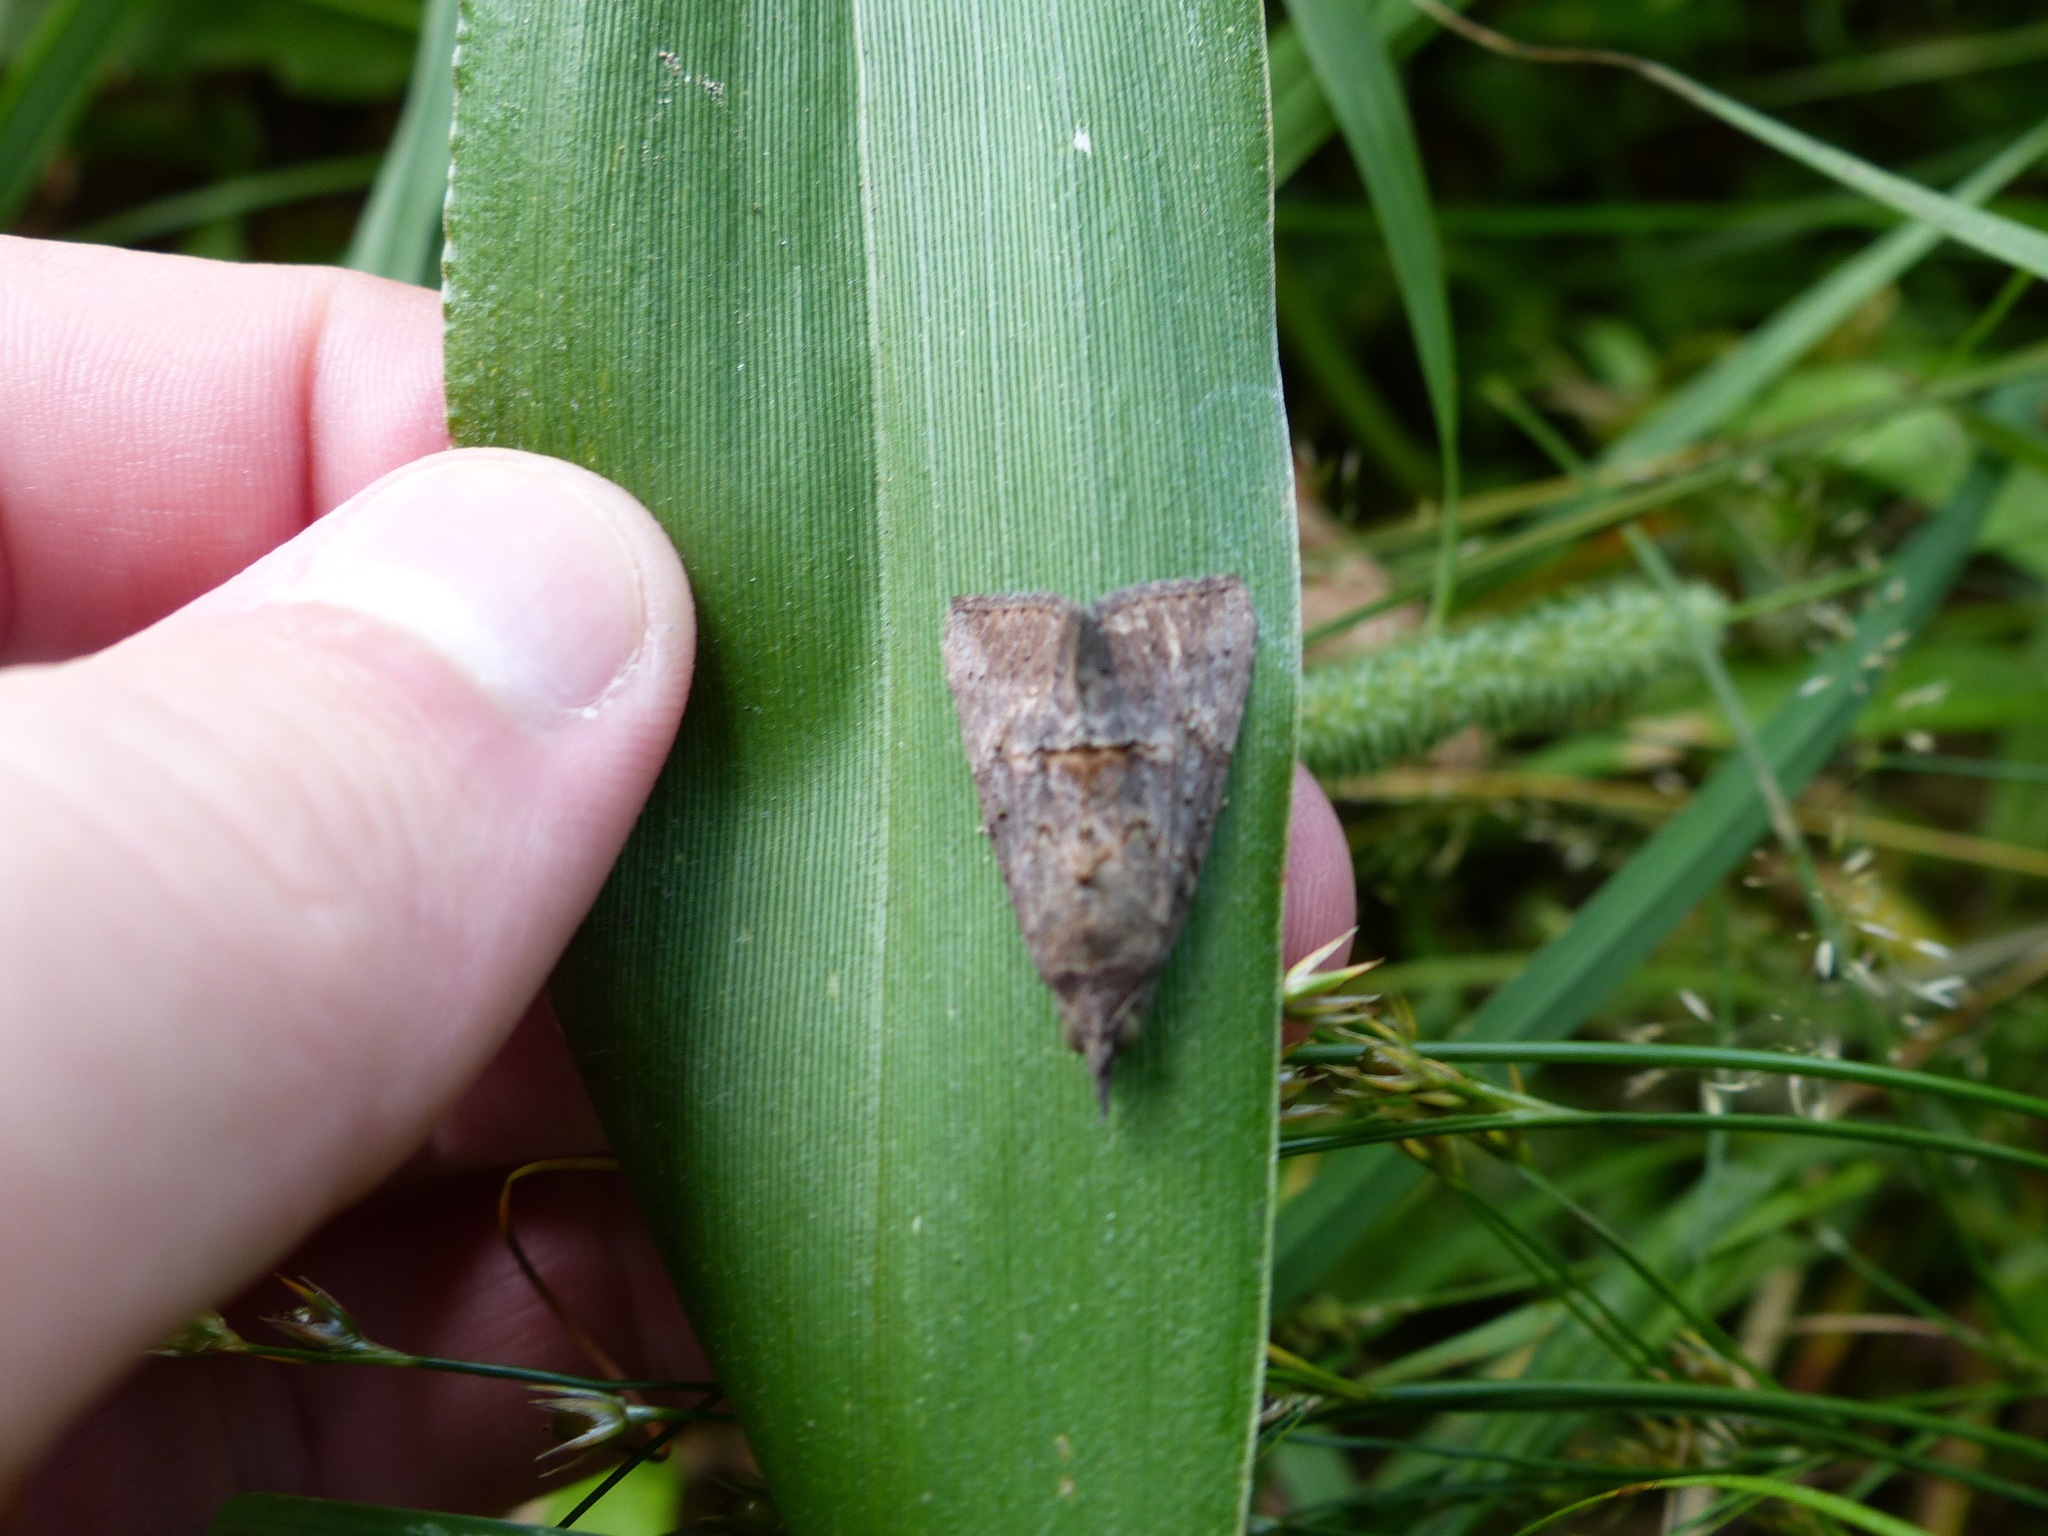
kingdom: Animalia
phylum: Arthropoda
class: Insecta
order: Lepidoptera
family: Erebidae
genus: Hypena
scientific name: Hypena scabra
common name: Green cloverworm
